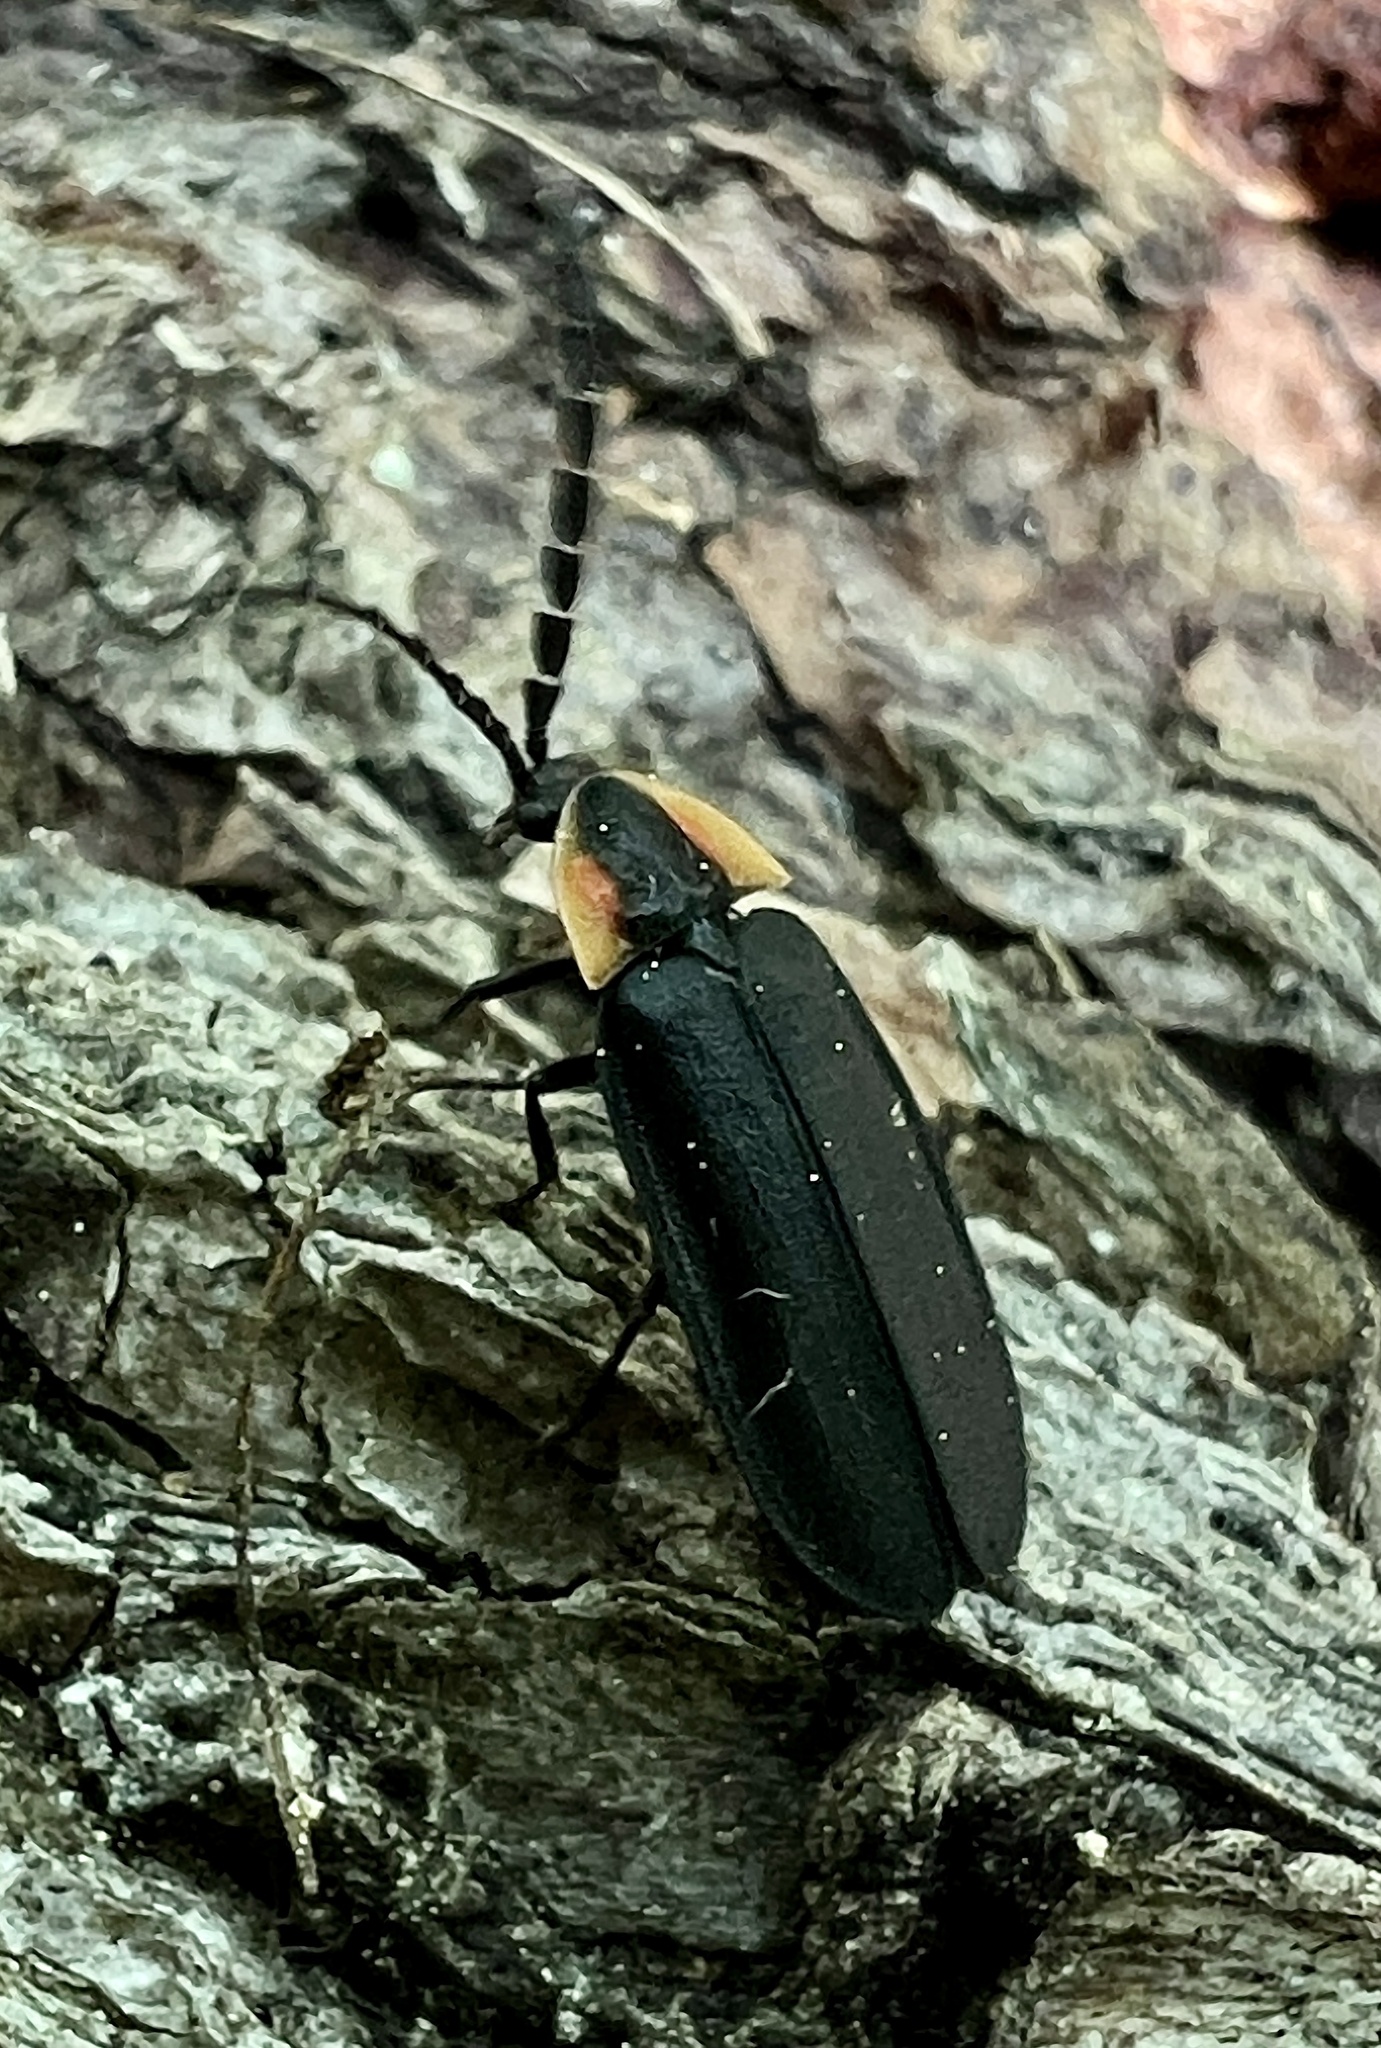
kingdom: Animalia
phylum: Arthropoda
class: Insecta
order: Coleoptera
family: Lampyridae
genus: Lucidota
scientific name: Lucidota atra
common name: Black firefly
